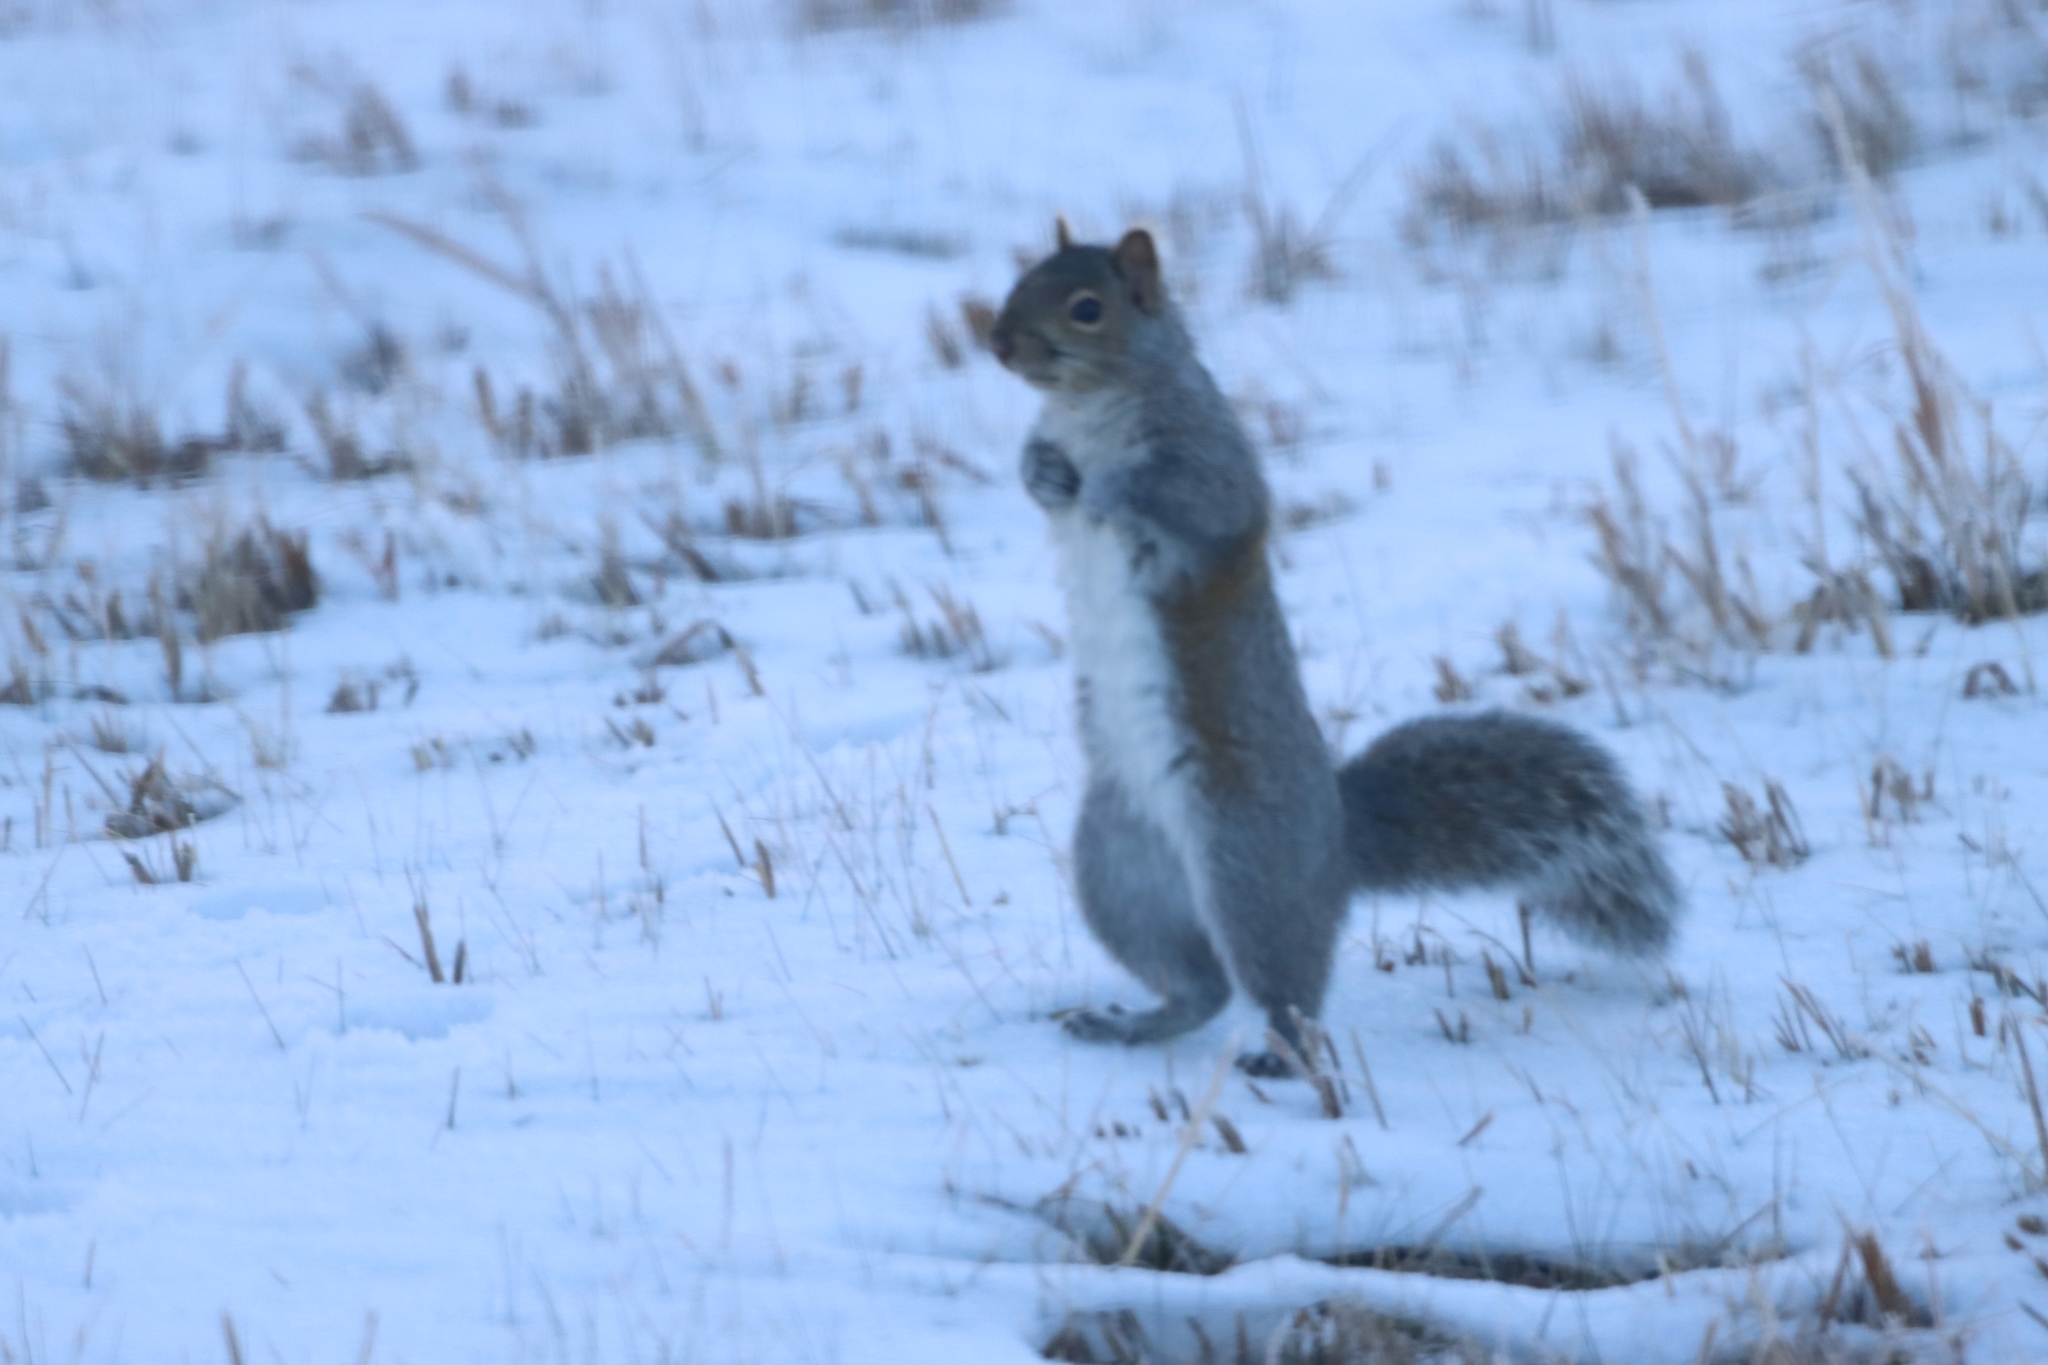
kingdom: Animalia
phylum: Chordata
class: Mammalia
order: Rodentia
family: Sciuridae
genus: Sciurus
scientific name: Sciurus carolinensis
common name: Eastern gray squirrel
